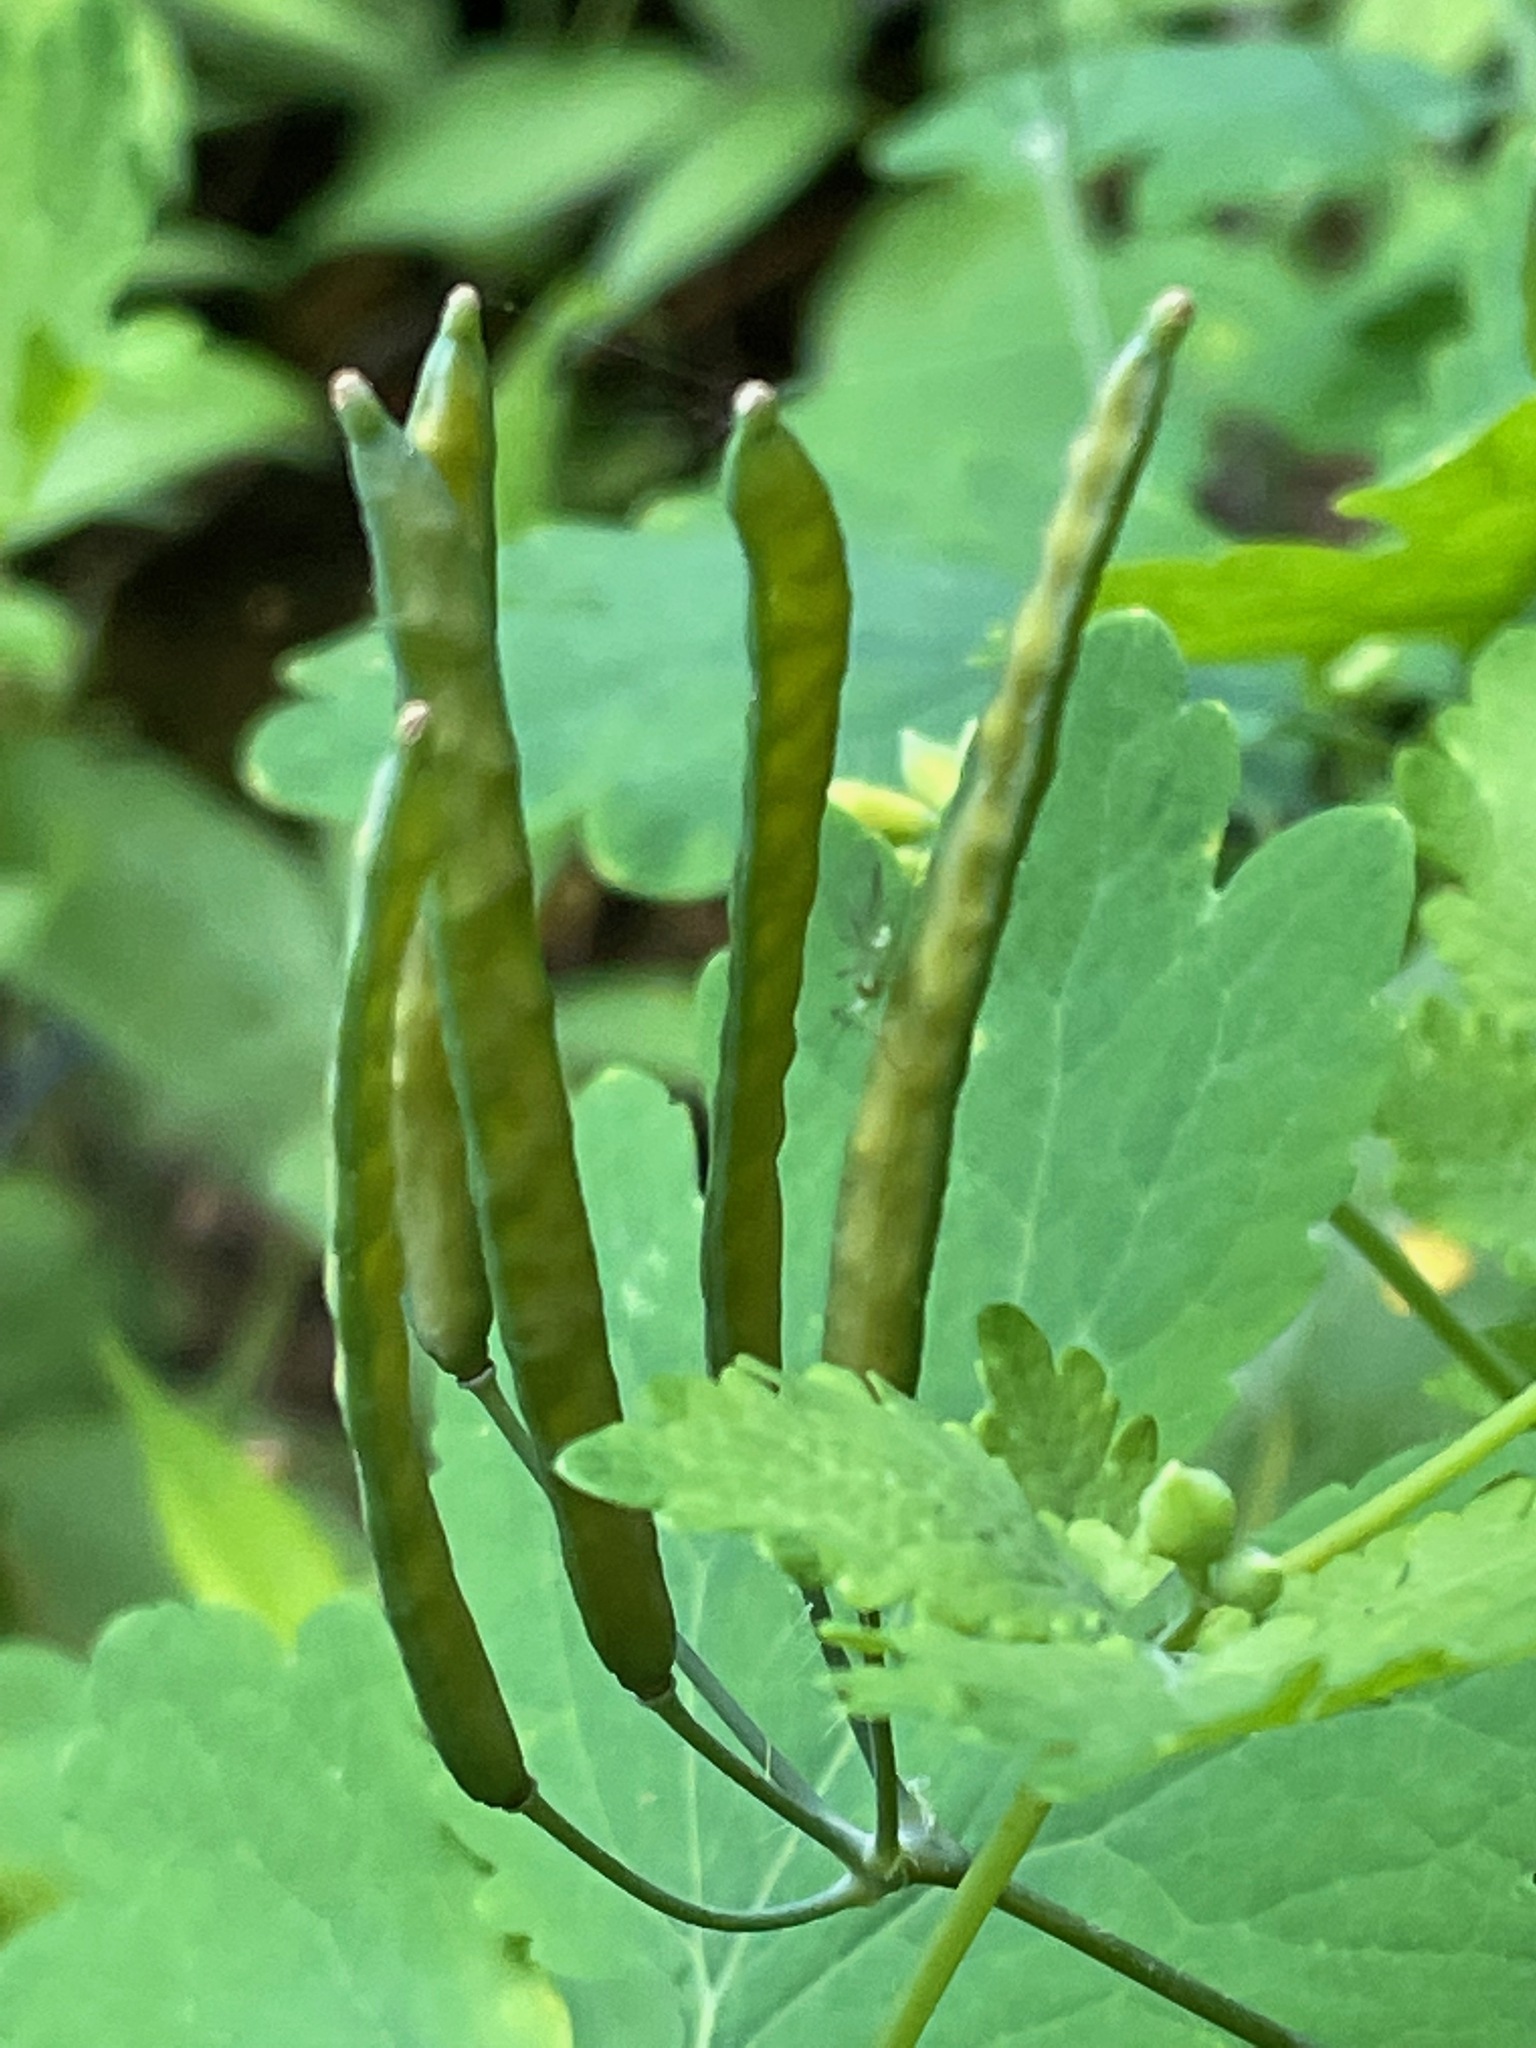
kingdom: Plantae
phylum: Tracheophyta
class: Magnoliopsida
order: Ranunculales
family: Papaveraceae
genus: Chelidonium
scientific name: Chelidonium majus
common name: Greater celandine
